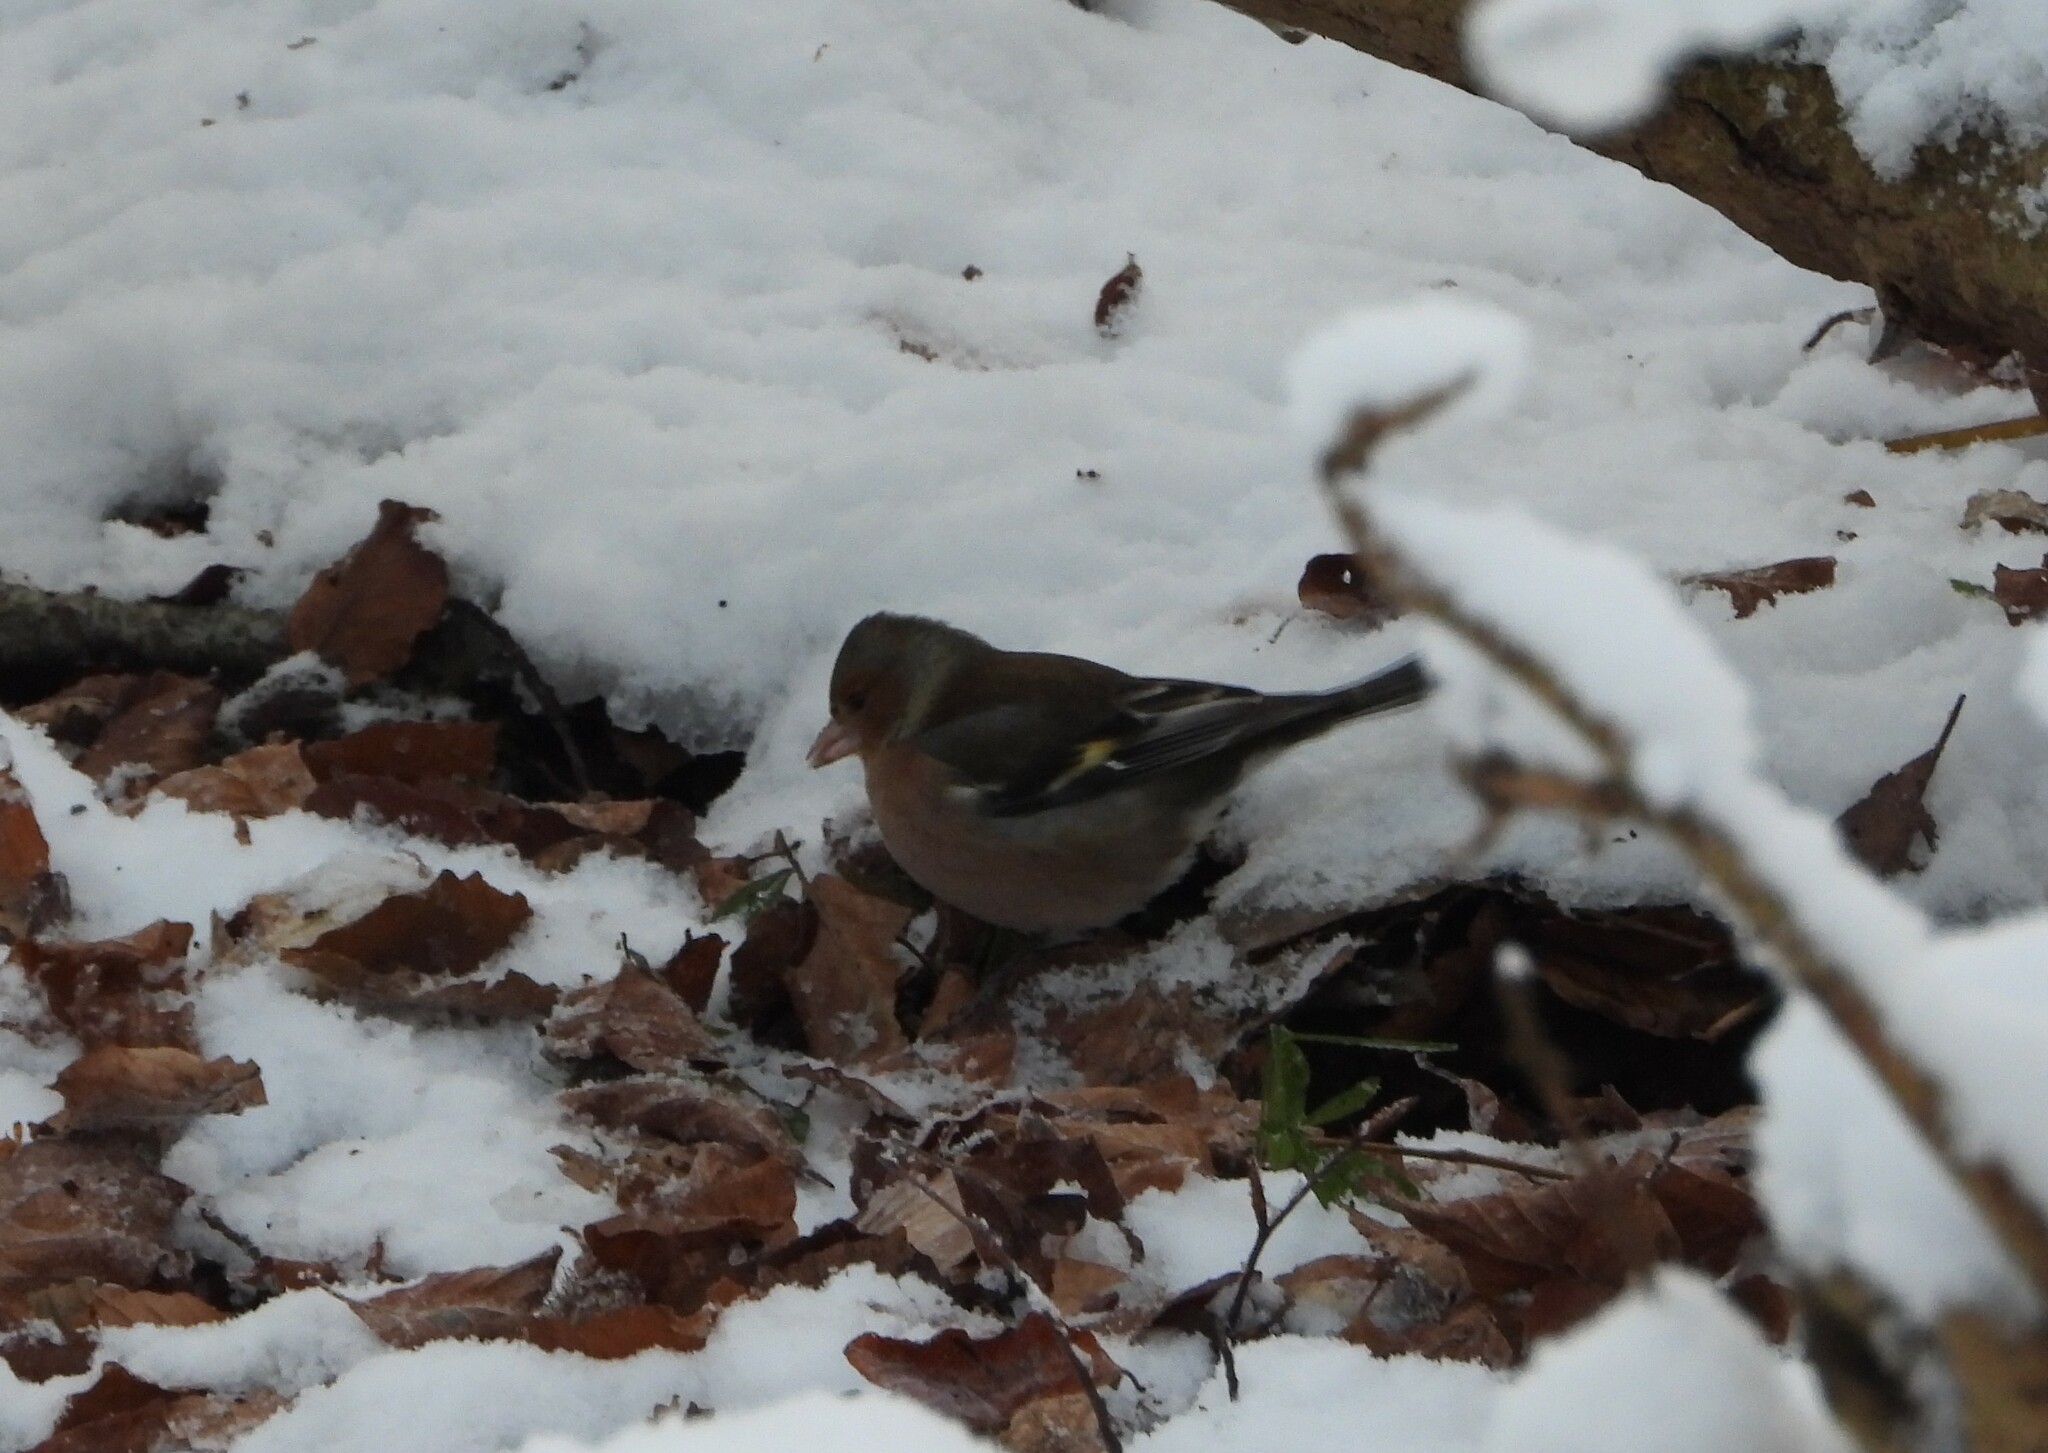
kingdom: Animalia
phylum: Chordata
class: Aves
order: Passeriformes
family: Fringillidae
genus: Fringilla
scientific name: Fringilla coelebs
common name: Common chaffinch
